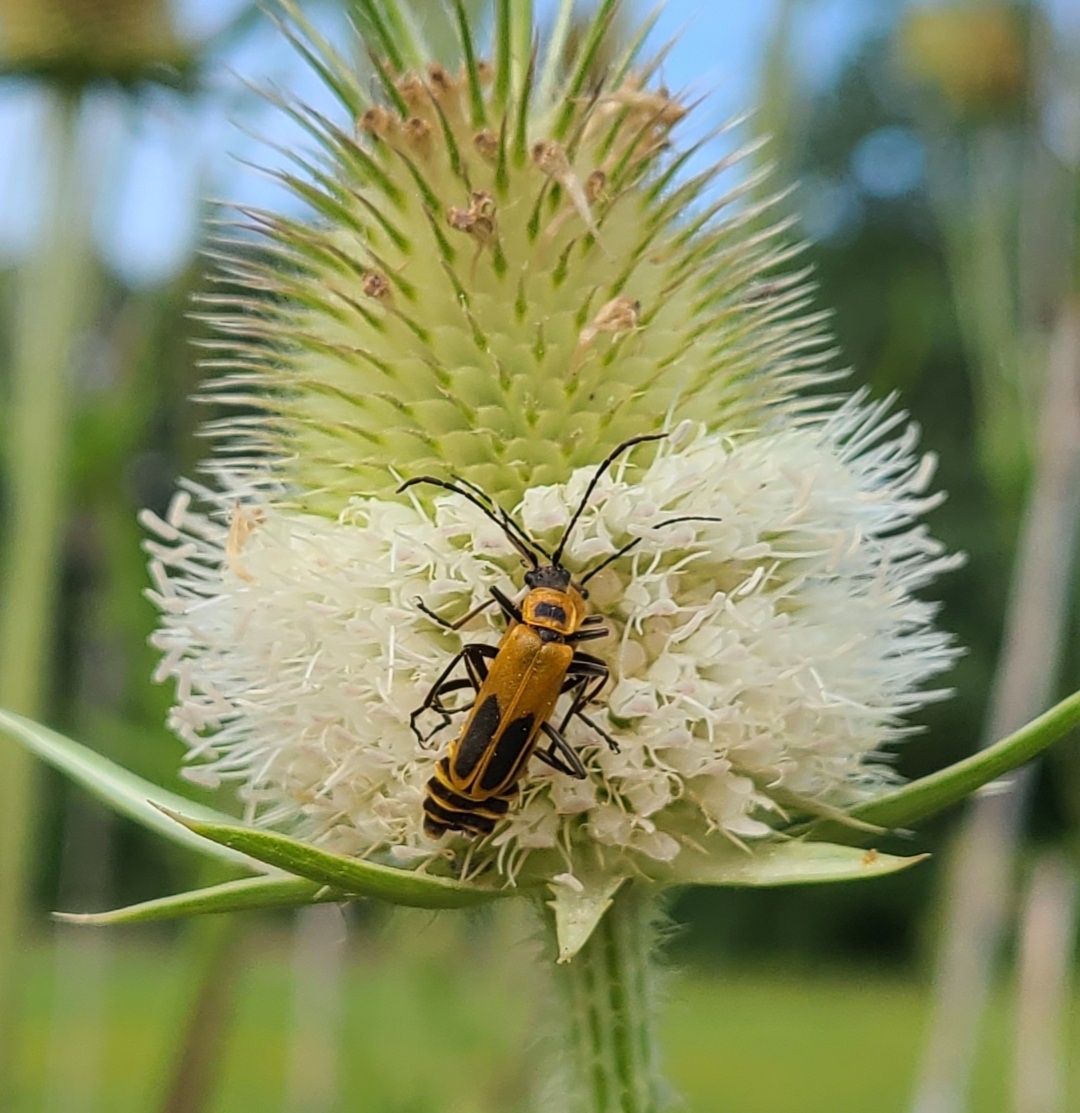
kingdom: Animalia
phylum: Arthropoda
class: Insecta
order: Coleoptera
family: Cantharidae
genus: Chauliognathus
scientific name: Chauliognathus pensylvanicus
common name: Goldenrod soldier beetle
